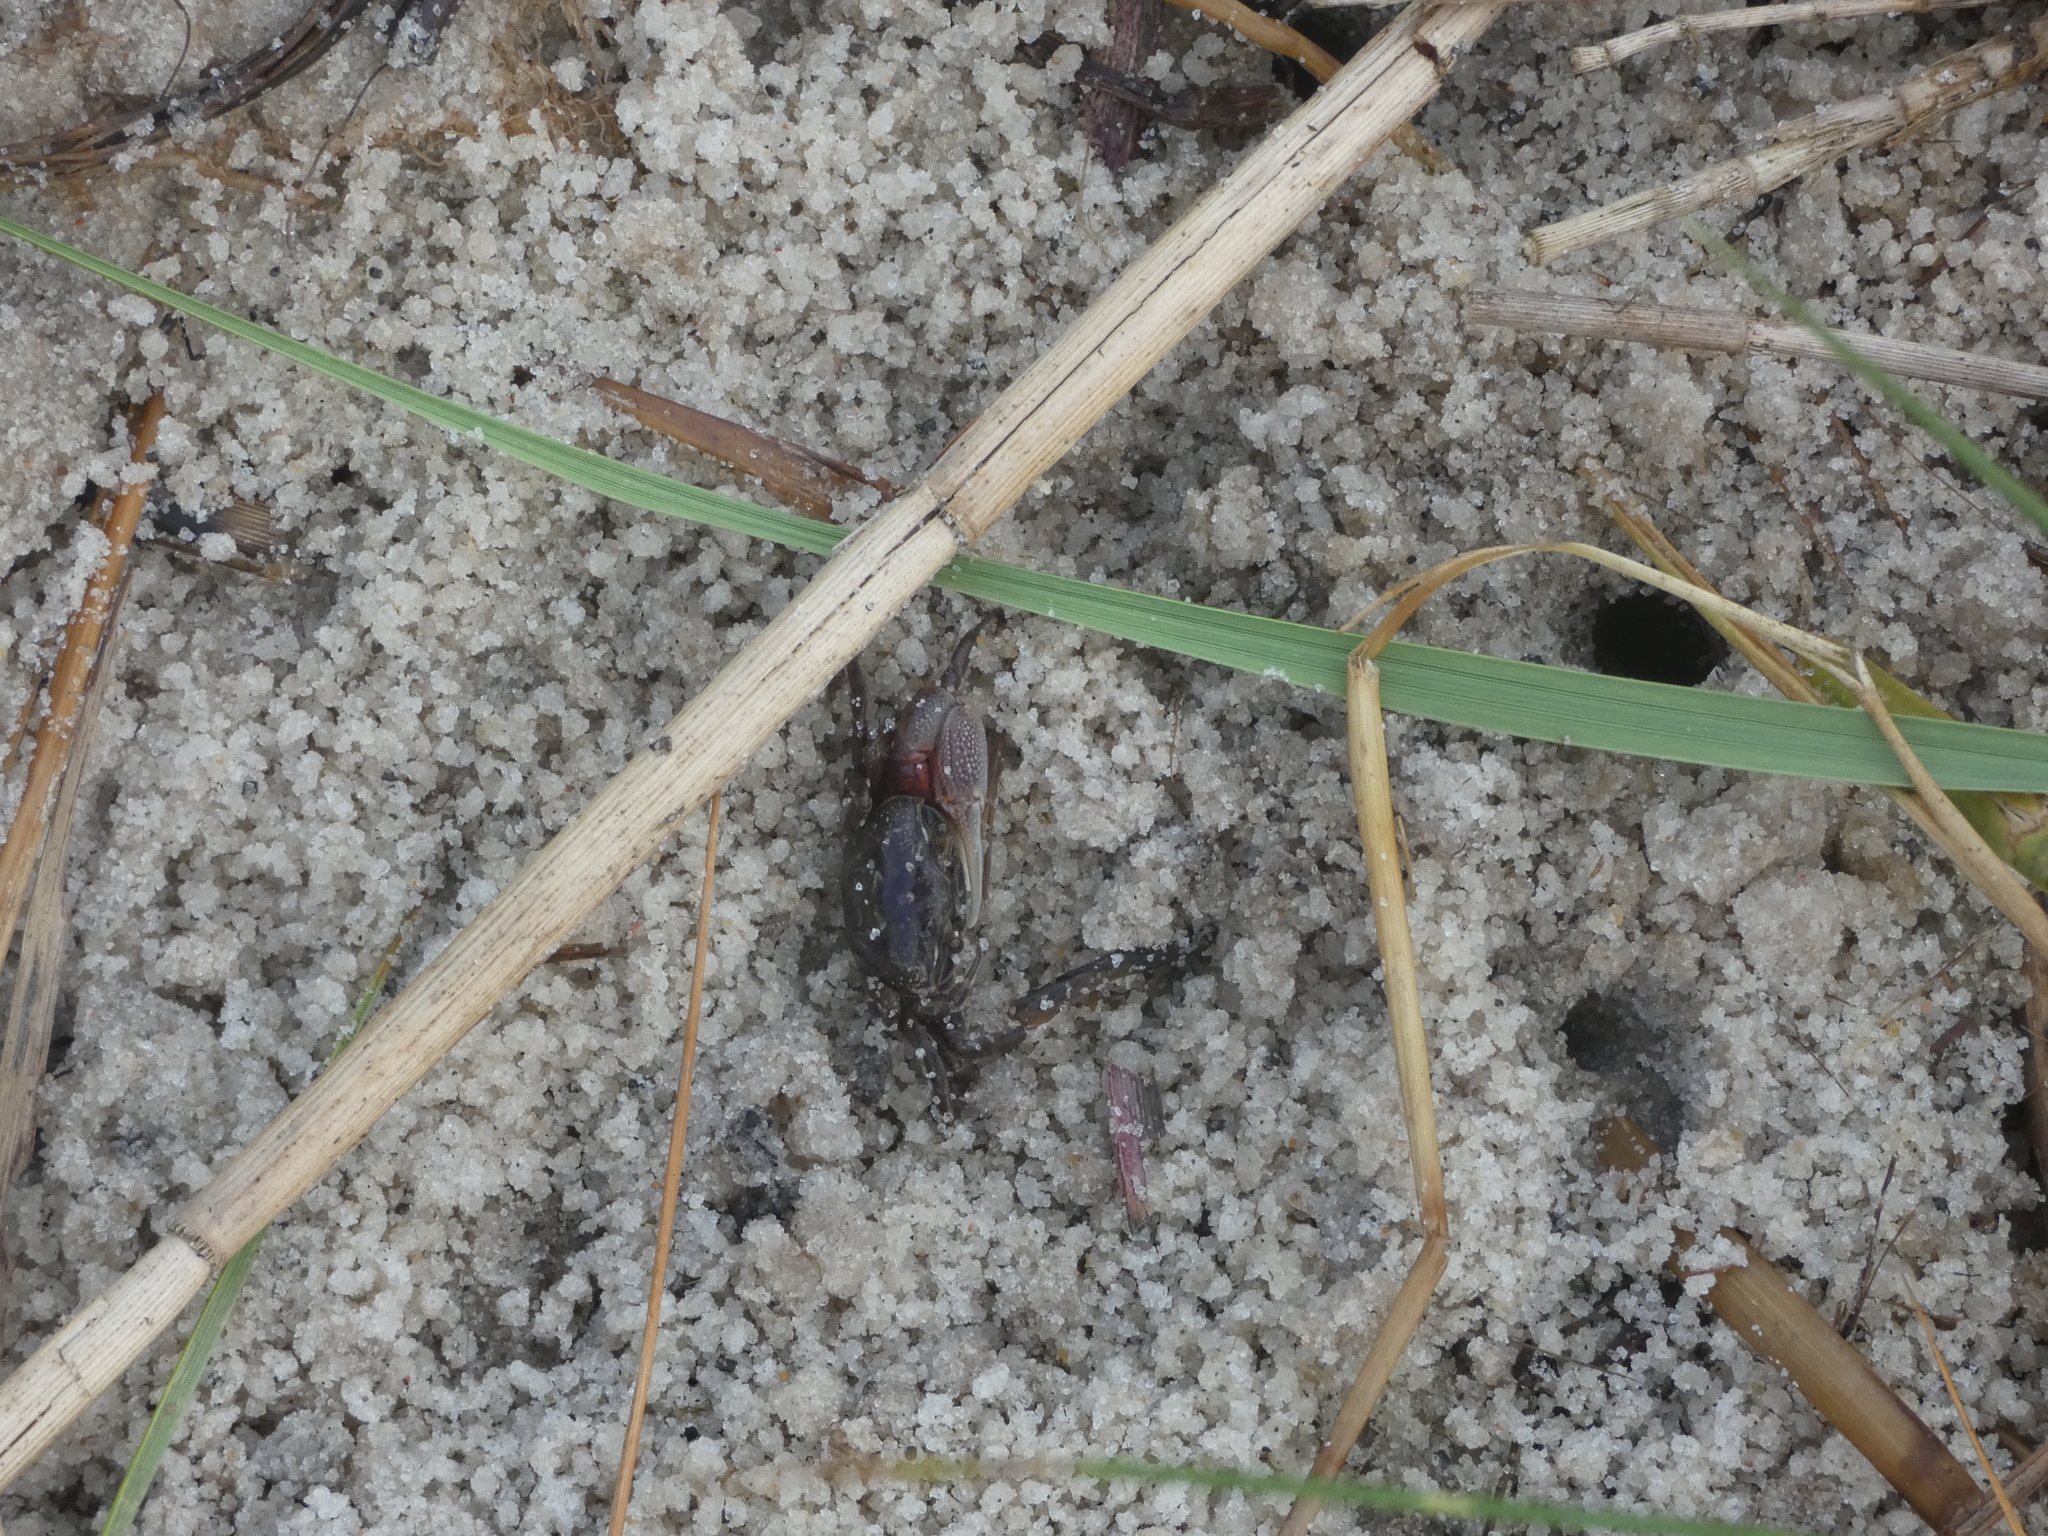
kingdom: Animalia
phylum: Arthropoda
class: Malacostraca
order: Decapoda
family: Ocypodidae
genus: Leptuca
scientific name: Leptuca pugilator
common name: Atlantic sand fiddler crab
